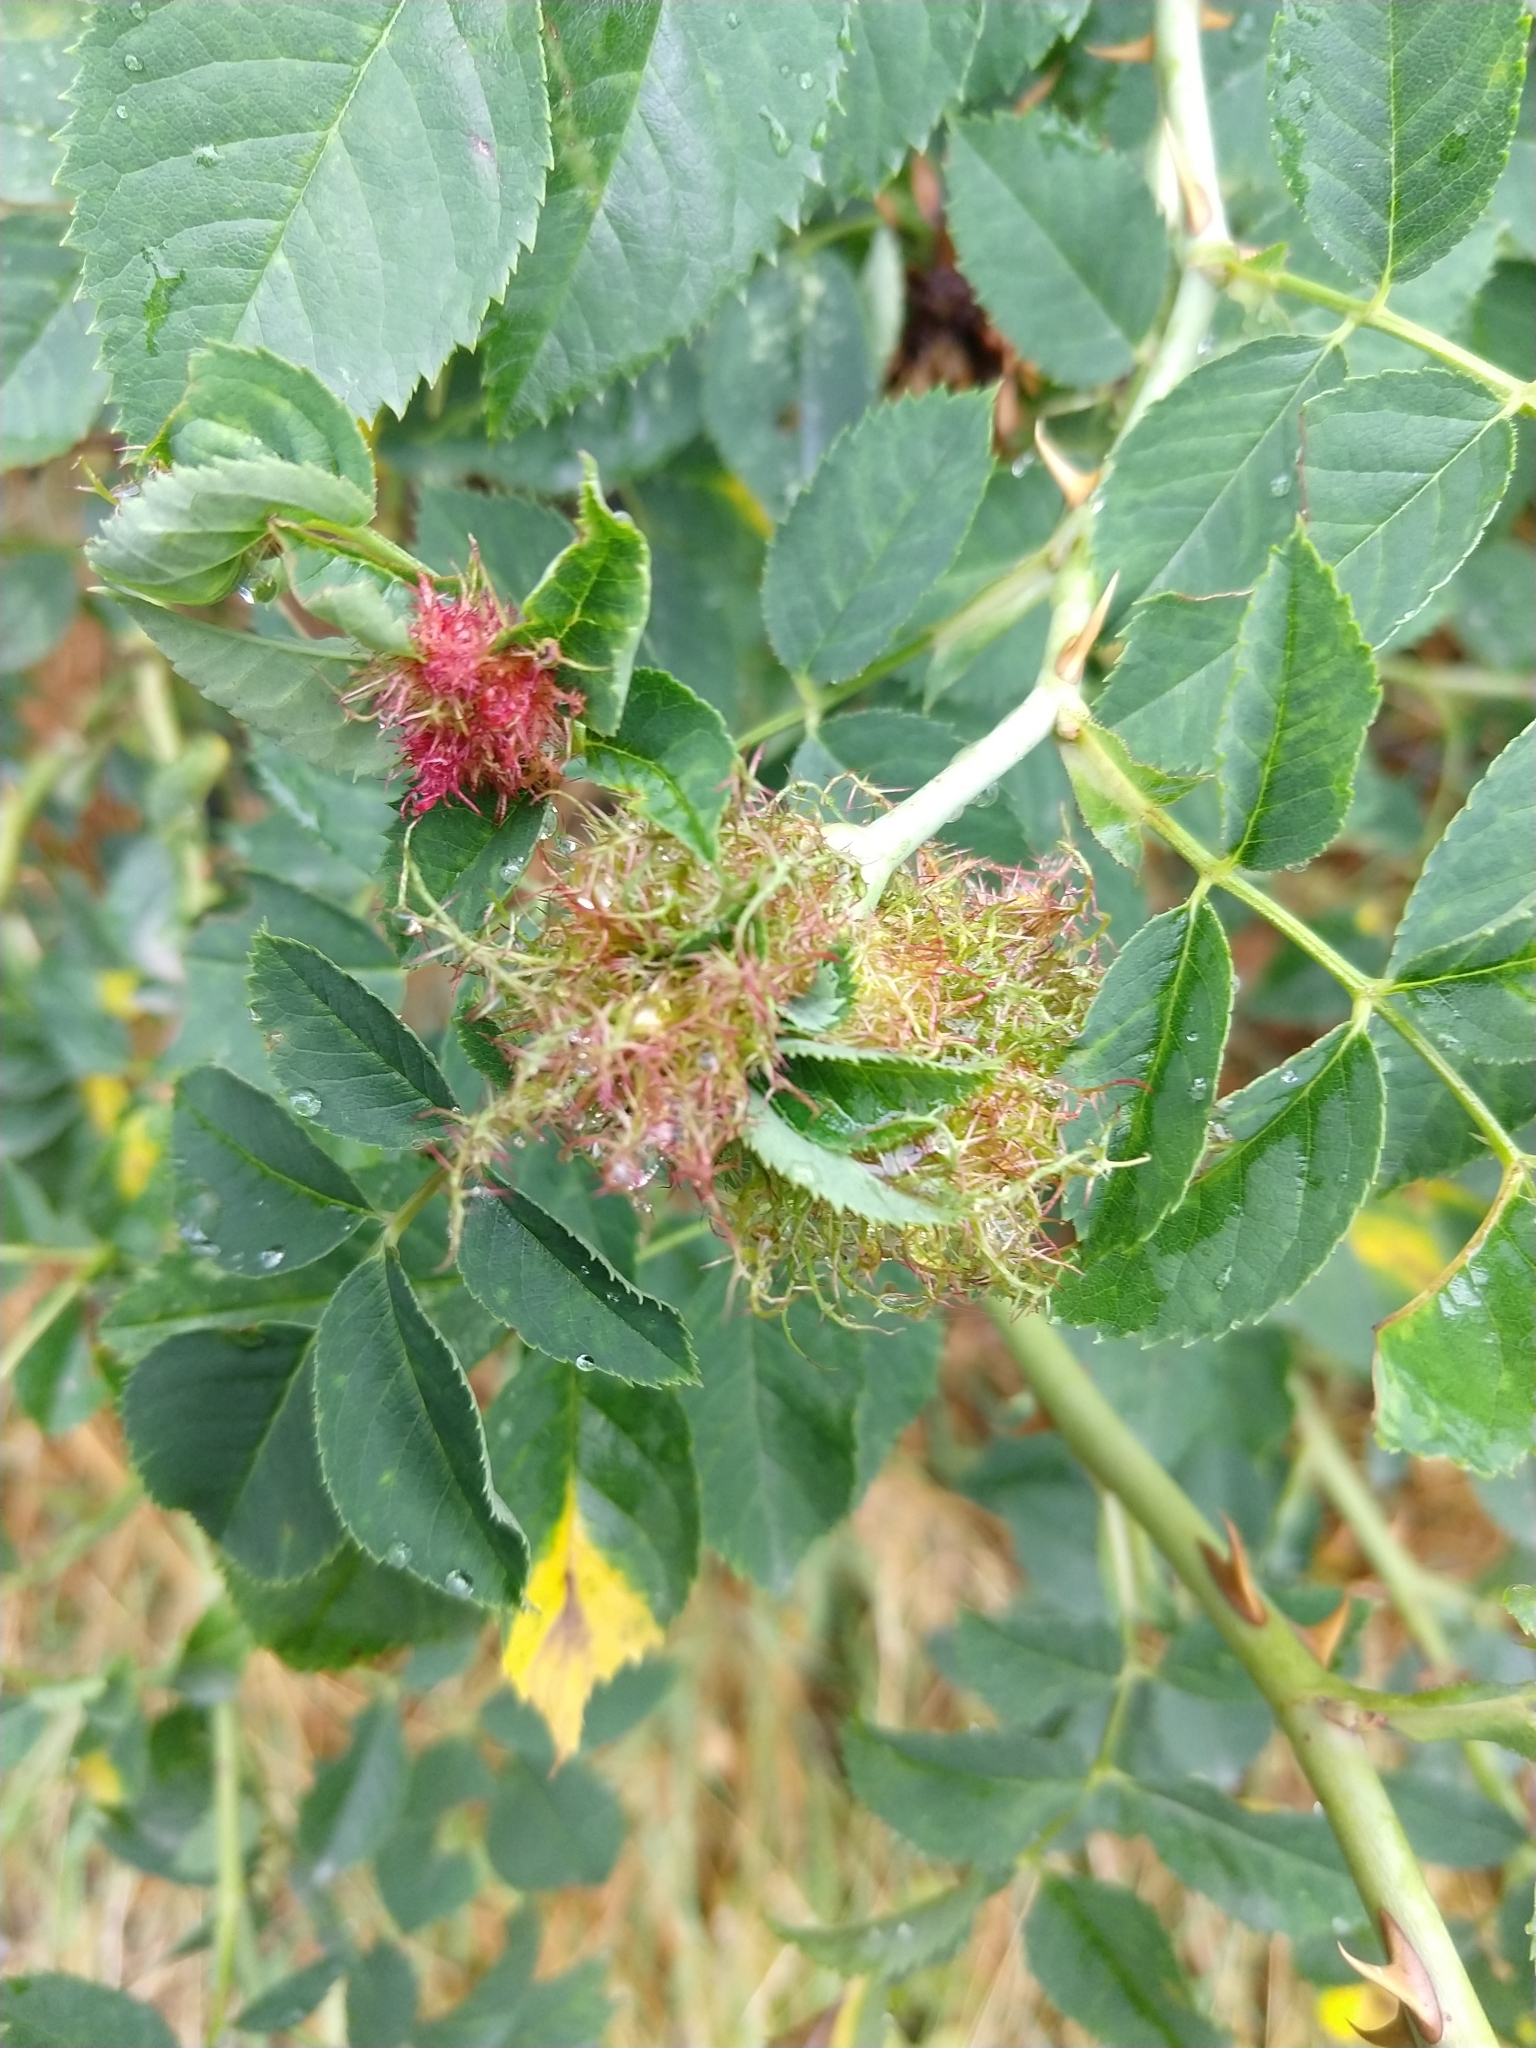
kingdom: Animalia
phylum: Arthropoda
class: Insecta
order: Hymenoptera
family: Cynipidae
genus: Diplolepis
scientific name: Diplolepis rosae
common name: Bedeguar gall
